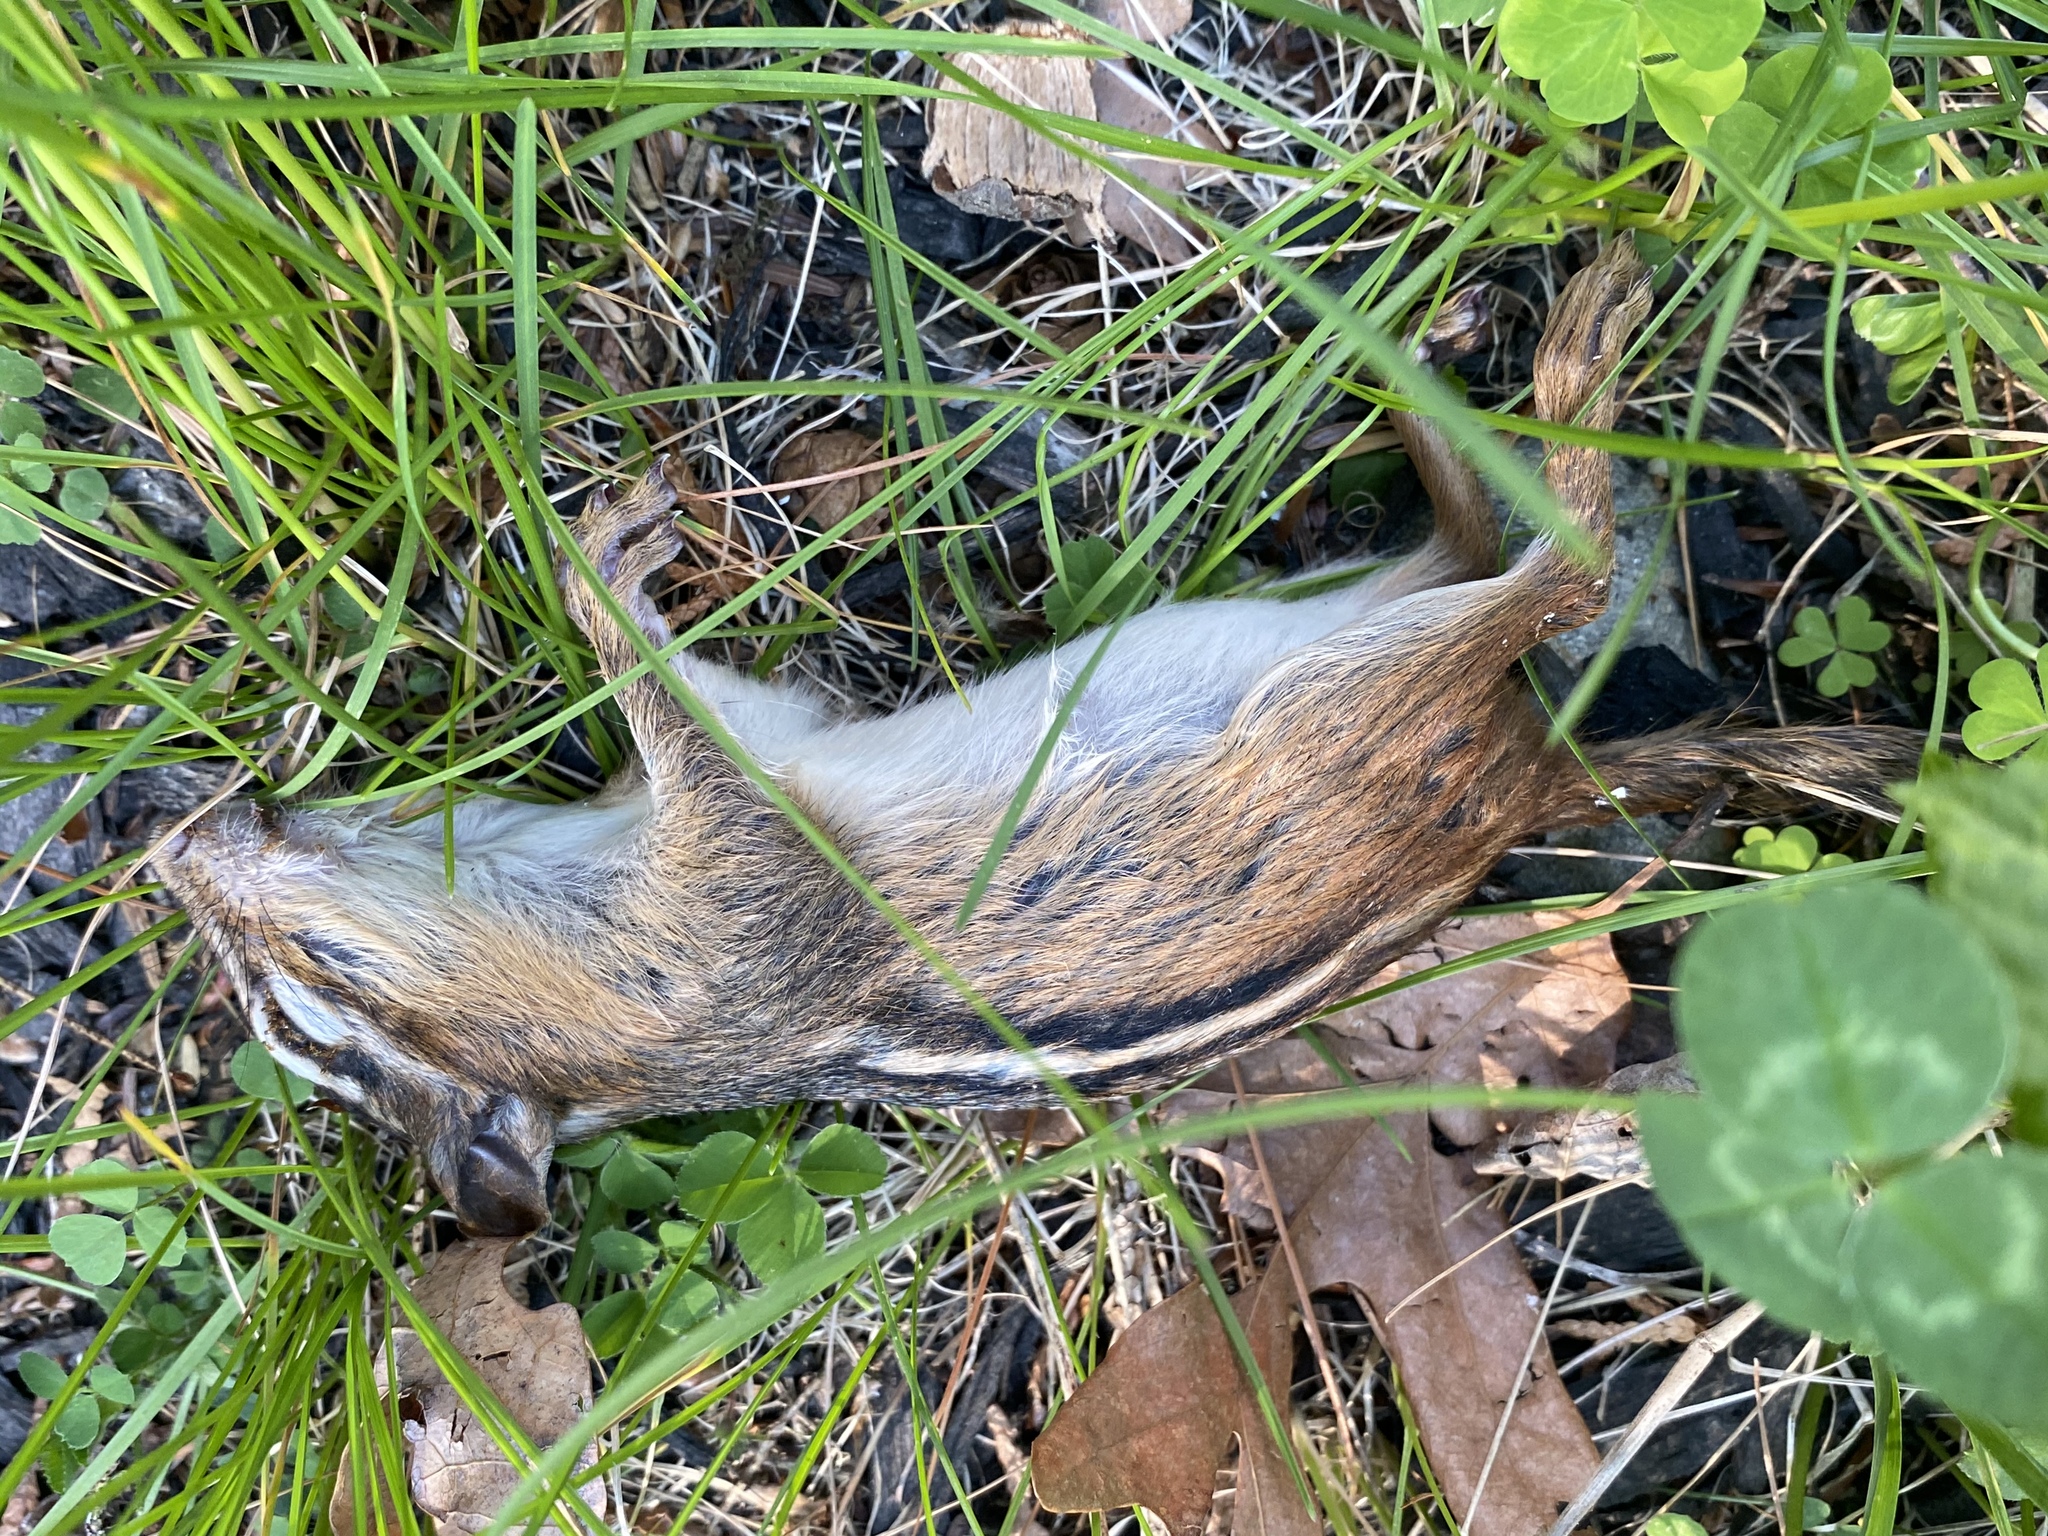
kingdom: Animalia
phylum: Chordata
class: Mammalia
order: Rodentia
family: Sciuridae
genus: Tamias
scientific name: Tamias striatus
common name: Eastern chipmunk
